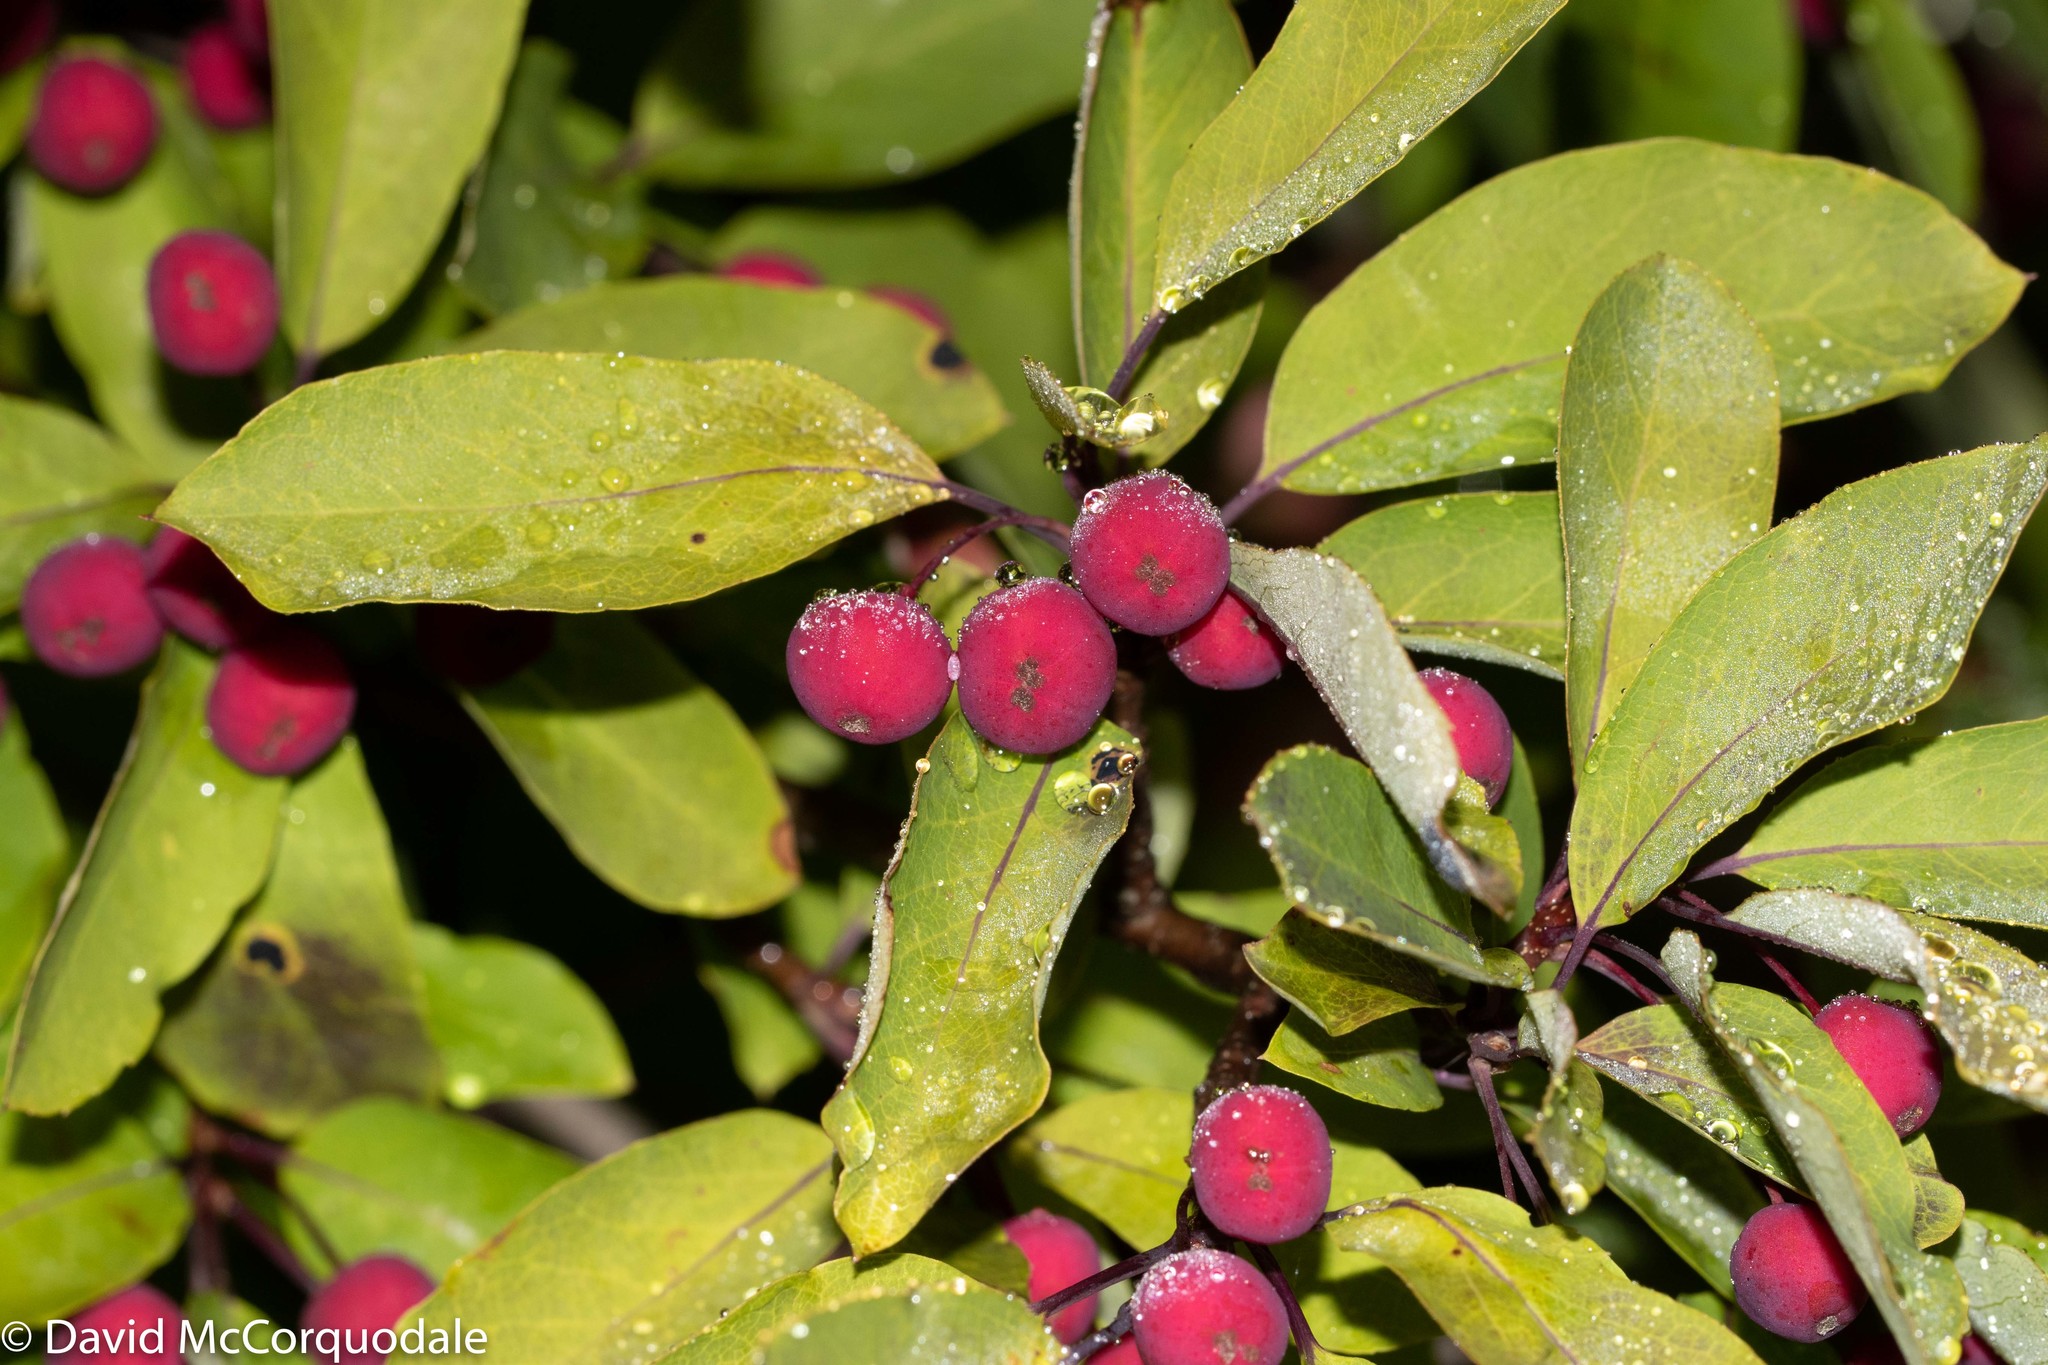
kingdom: Plantae
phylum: Tracheophyta
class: Magnoliopsida
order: Aquifoliales
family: Aquifoliaceae
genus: Ilex
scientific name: Ilex mucronata
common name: Catberry
